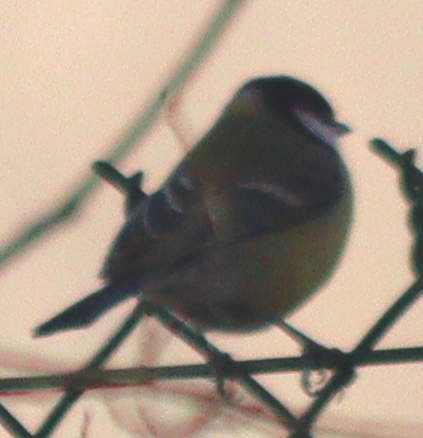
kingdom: Animalia
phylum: Chordata
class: Aves
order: Passeriformes
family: Paridae
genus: Parus
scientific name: Parus major
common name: Great tit
